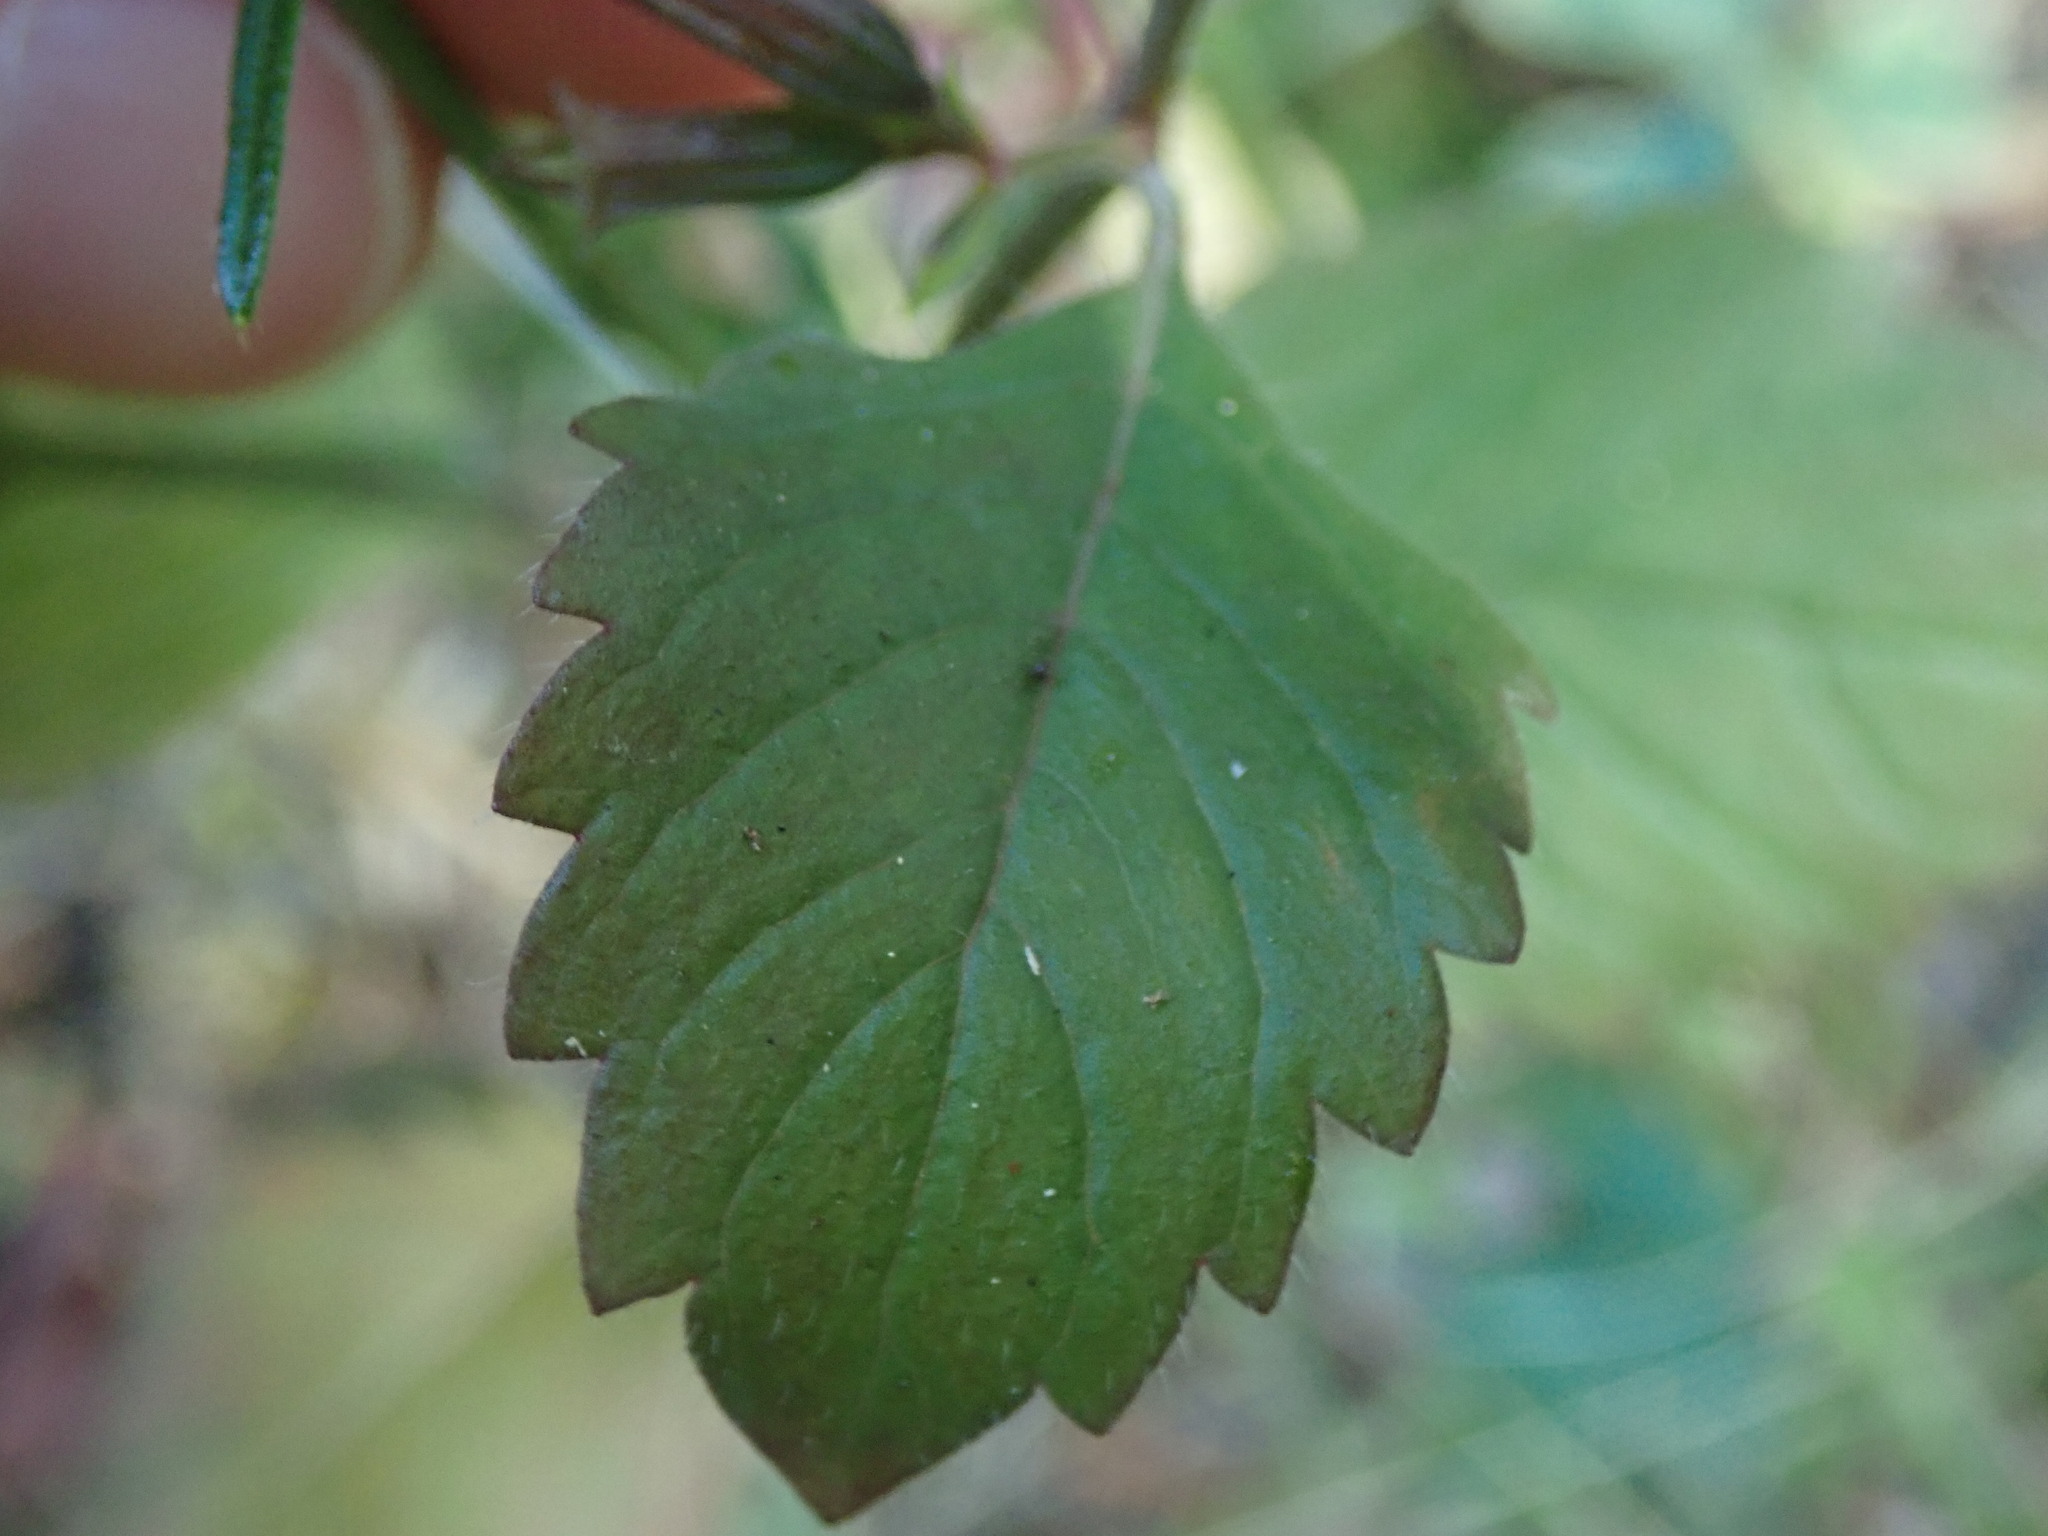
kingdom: Plantae
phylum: Tracheophyta
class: Magnoliopsida
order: Lamiales
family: Lamiaceae
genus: Clinopodium
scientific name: Clinopodium grandiflorum
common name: Greater calamint
